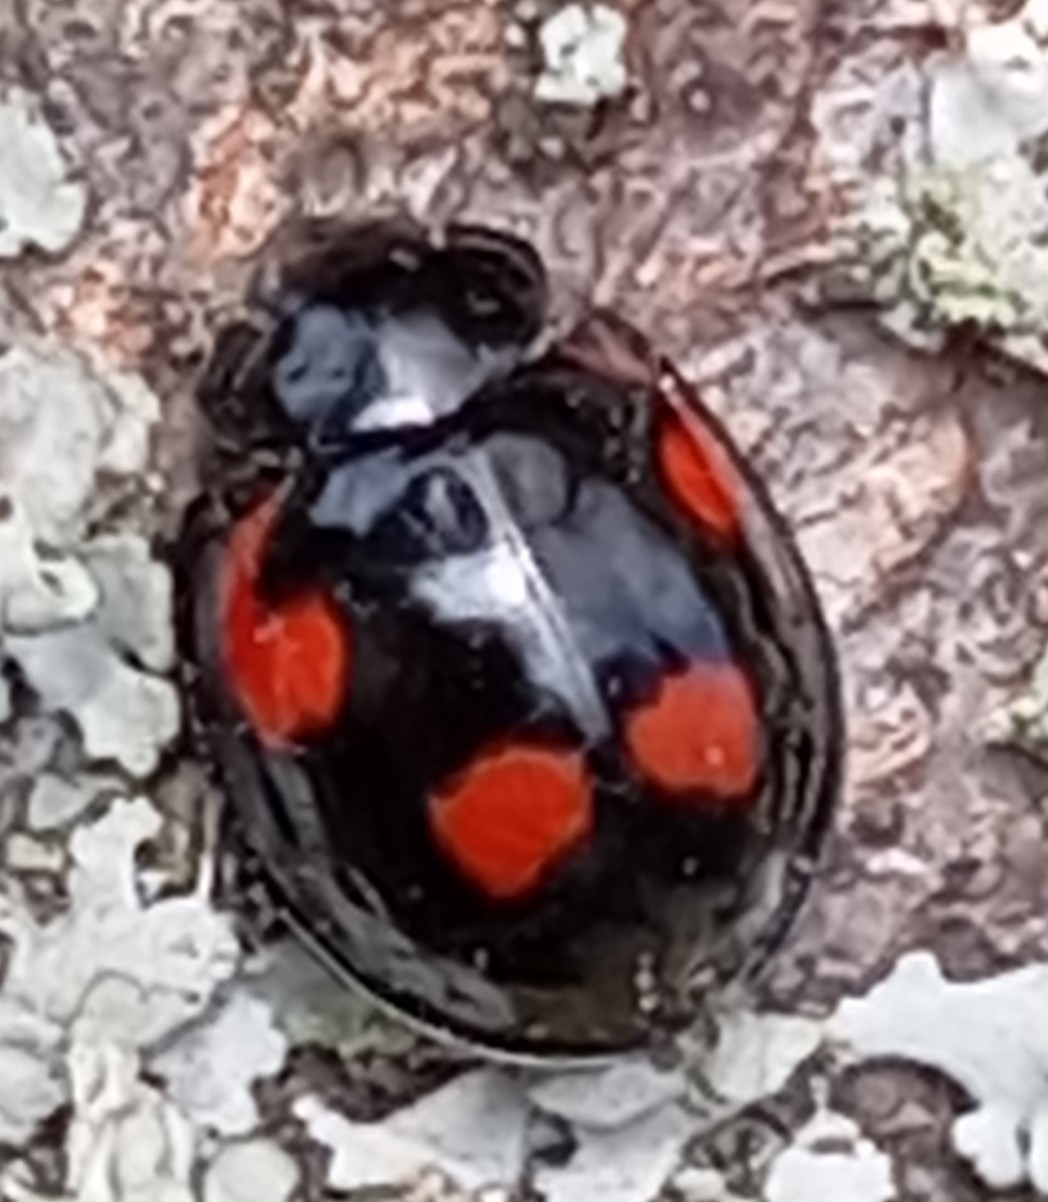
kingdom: Animalia
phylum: Arthropoda
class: Insecta
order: Coleoptera
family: Coccinellidae
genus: Brumus
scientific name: Brumus quadripustulatus
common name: Ladybird beetle
